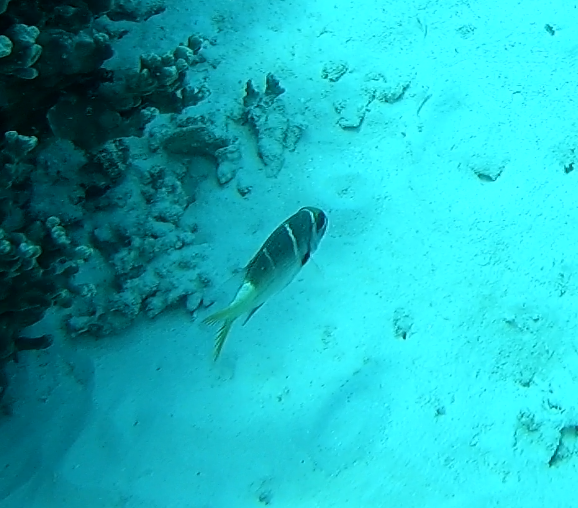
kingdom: Animalia
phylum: Chordata
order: Perciformes
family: Lethrinidae
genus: Monotaxis
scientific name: Monotaxis heterodon
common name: Redfin emperor
